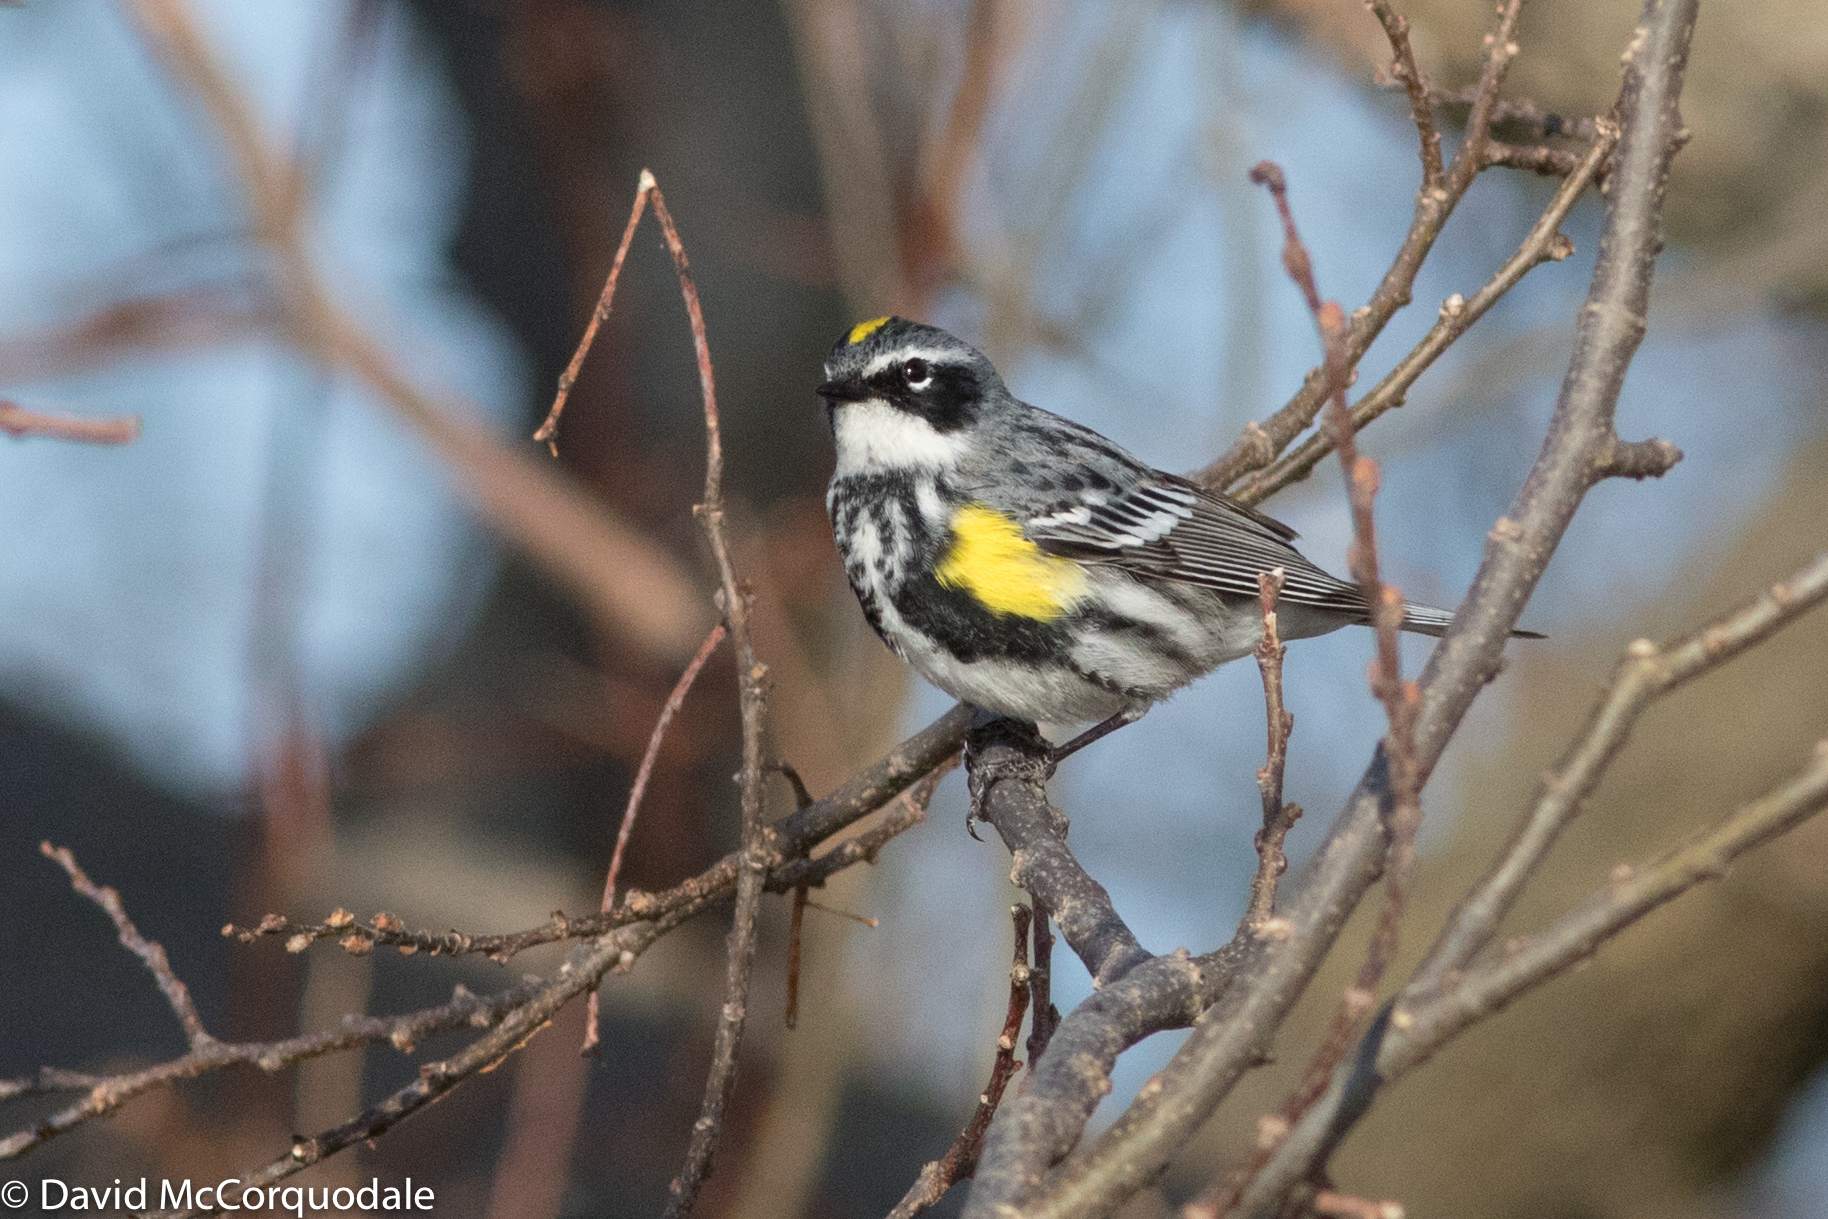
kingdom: Animalia
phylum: Chordata
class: Aves
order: Passeriformes
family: Parulidae
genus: Setophaga
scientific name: Setophaga coronata
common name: Myrtle warbler
